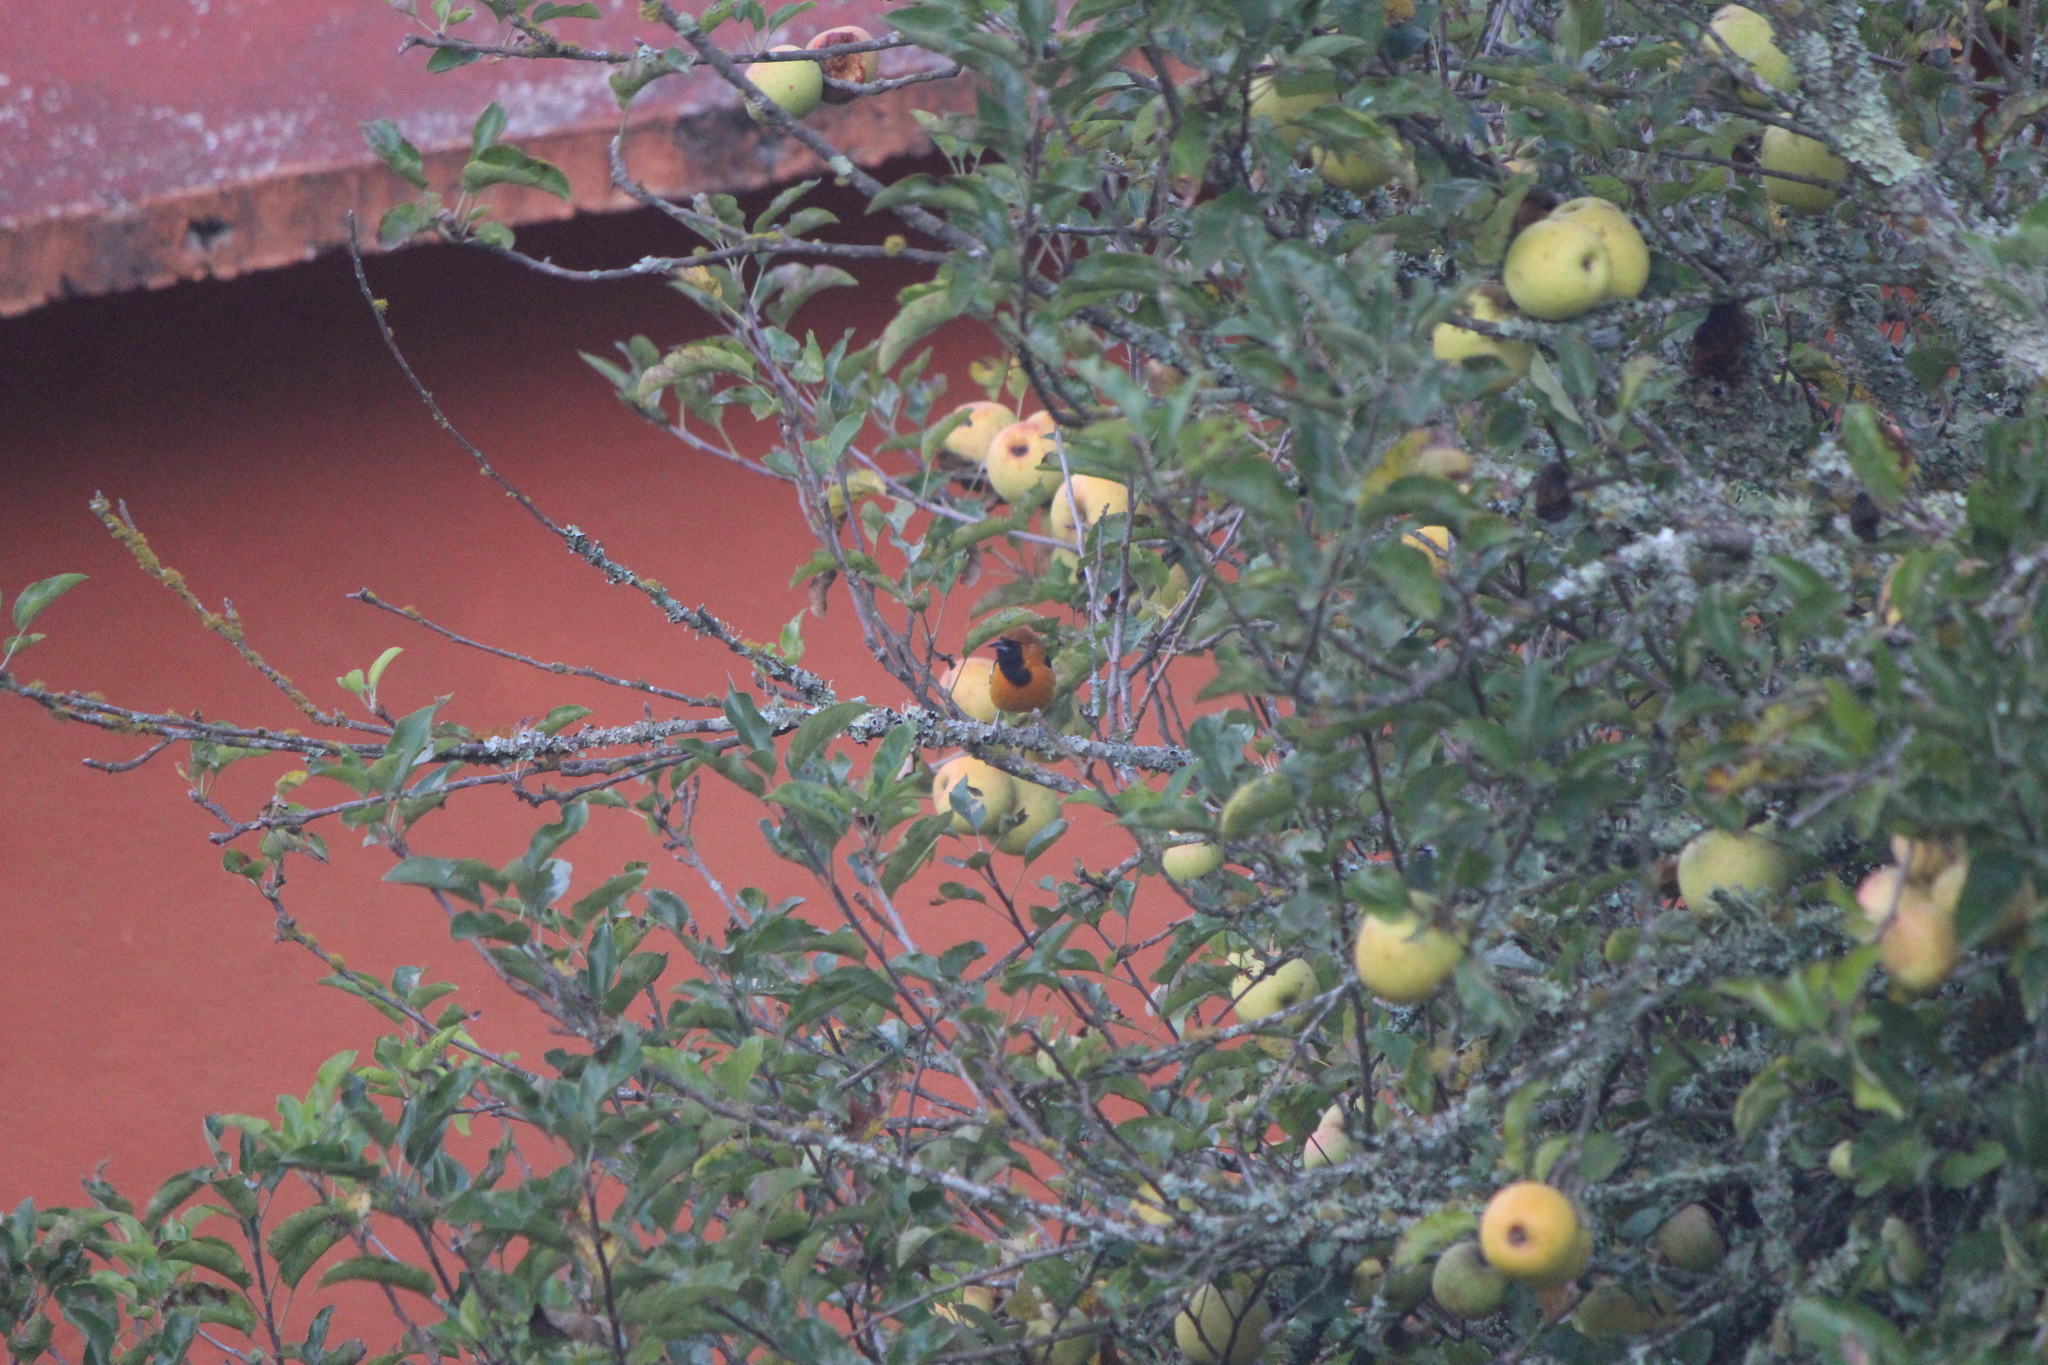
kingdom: Animalia
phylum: Chordata
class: Aves
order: Passeriformes
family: Icteridae
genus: Icterus
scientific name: Icterus cucullatus
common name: Hooded oriole
